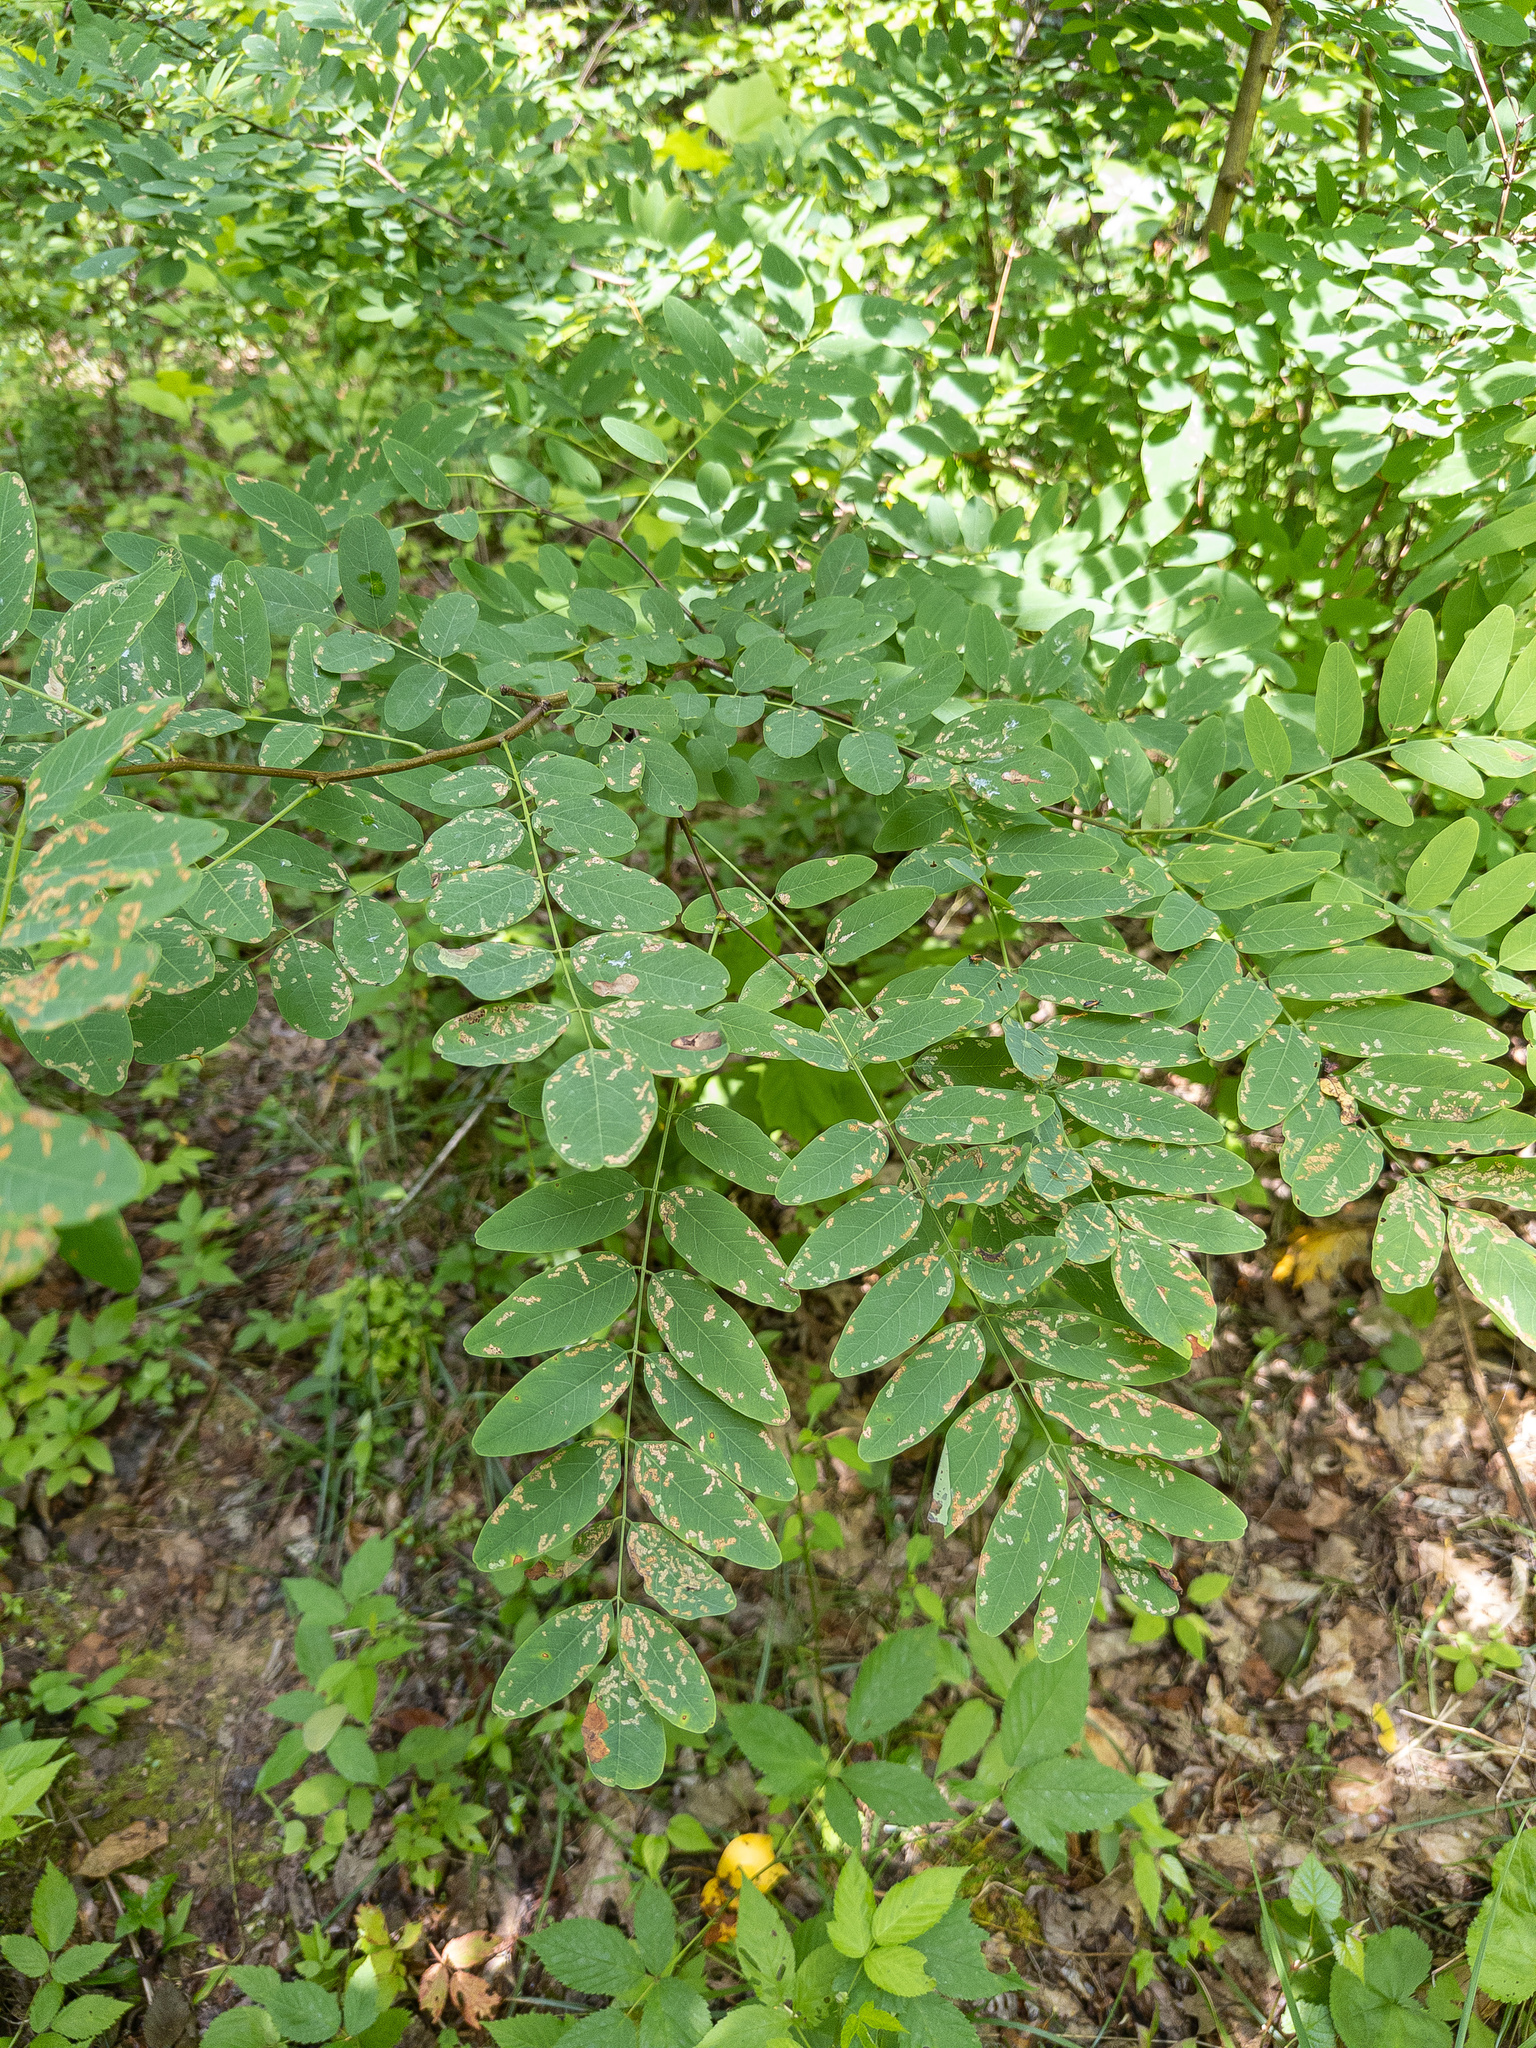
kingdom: Plantae
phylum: Tracheophyta
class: Magnoliopsida
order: Fabales
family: Fabaceae
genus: Robinia
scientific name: Robinia pseudoacacia
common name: Black locust
